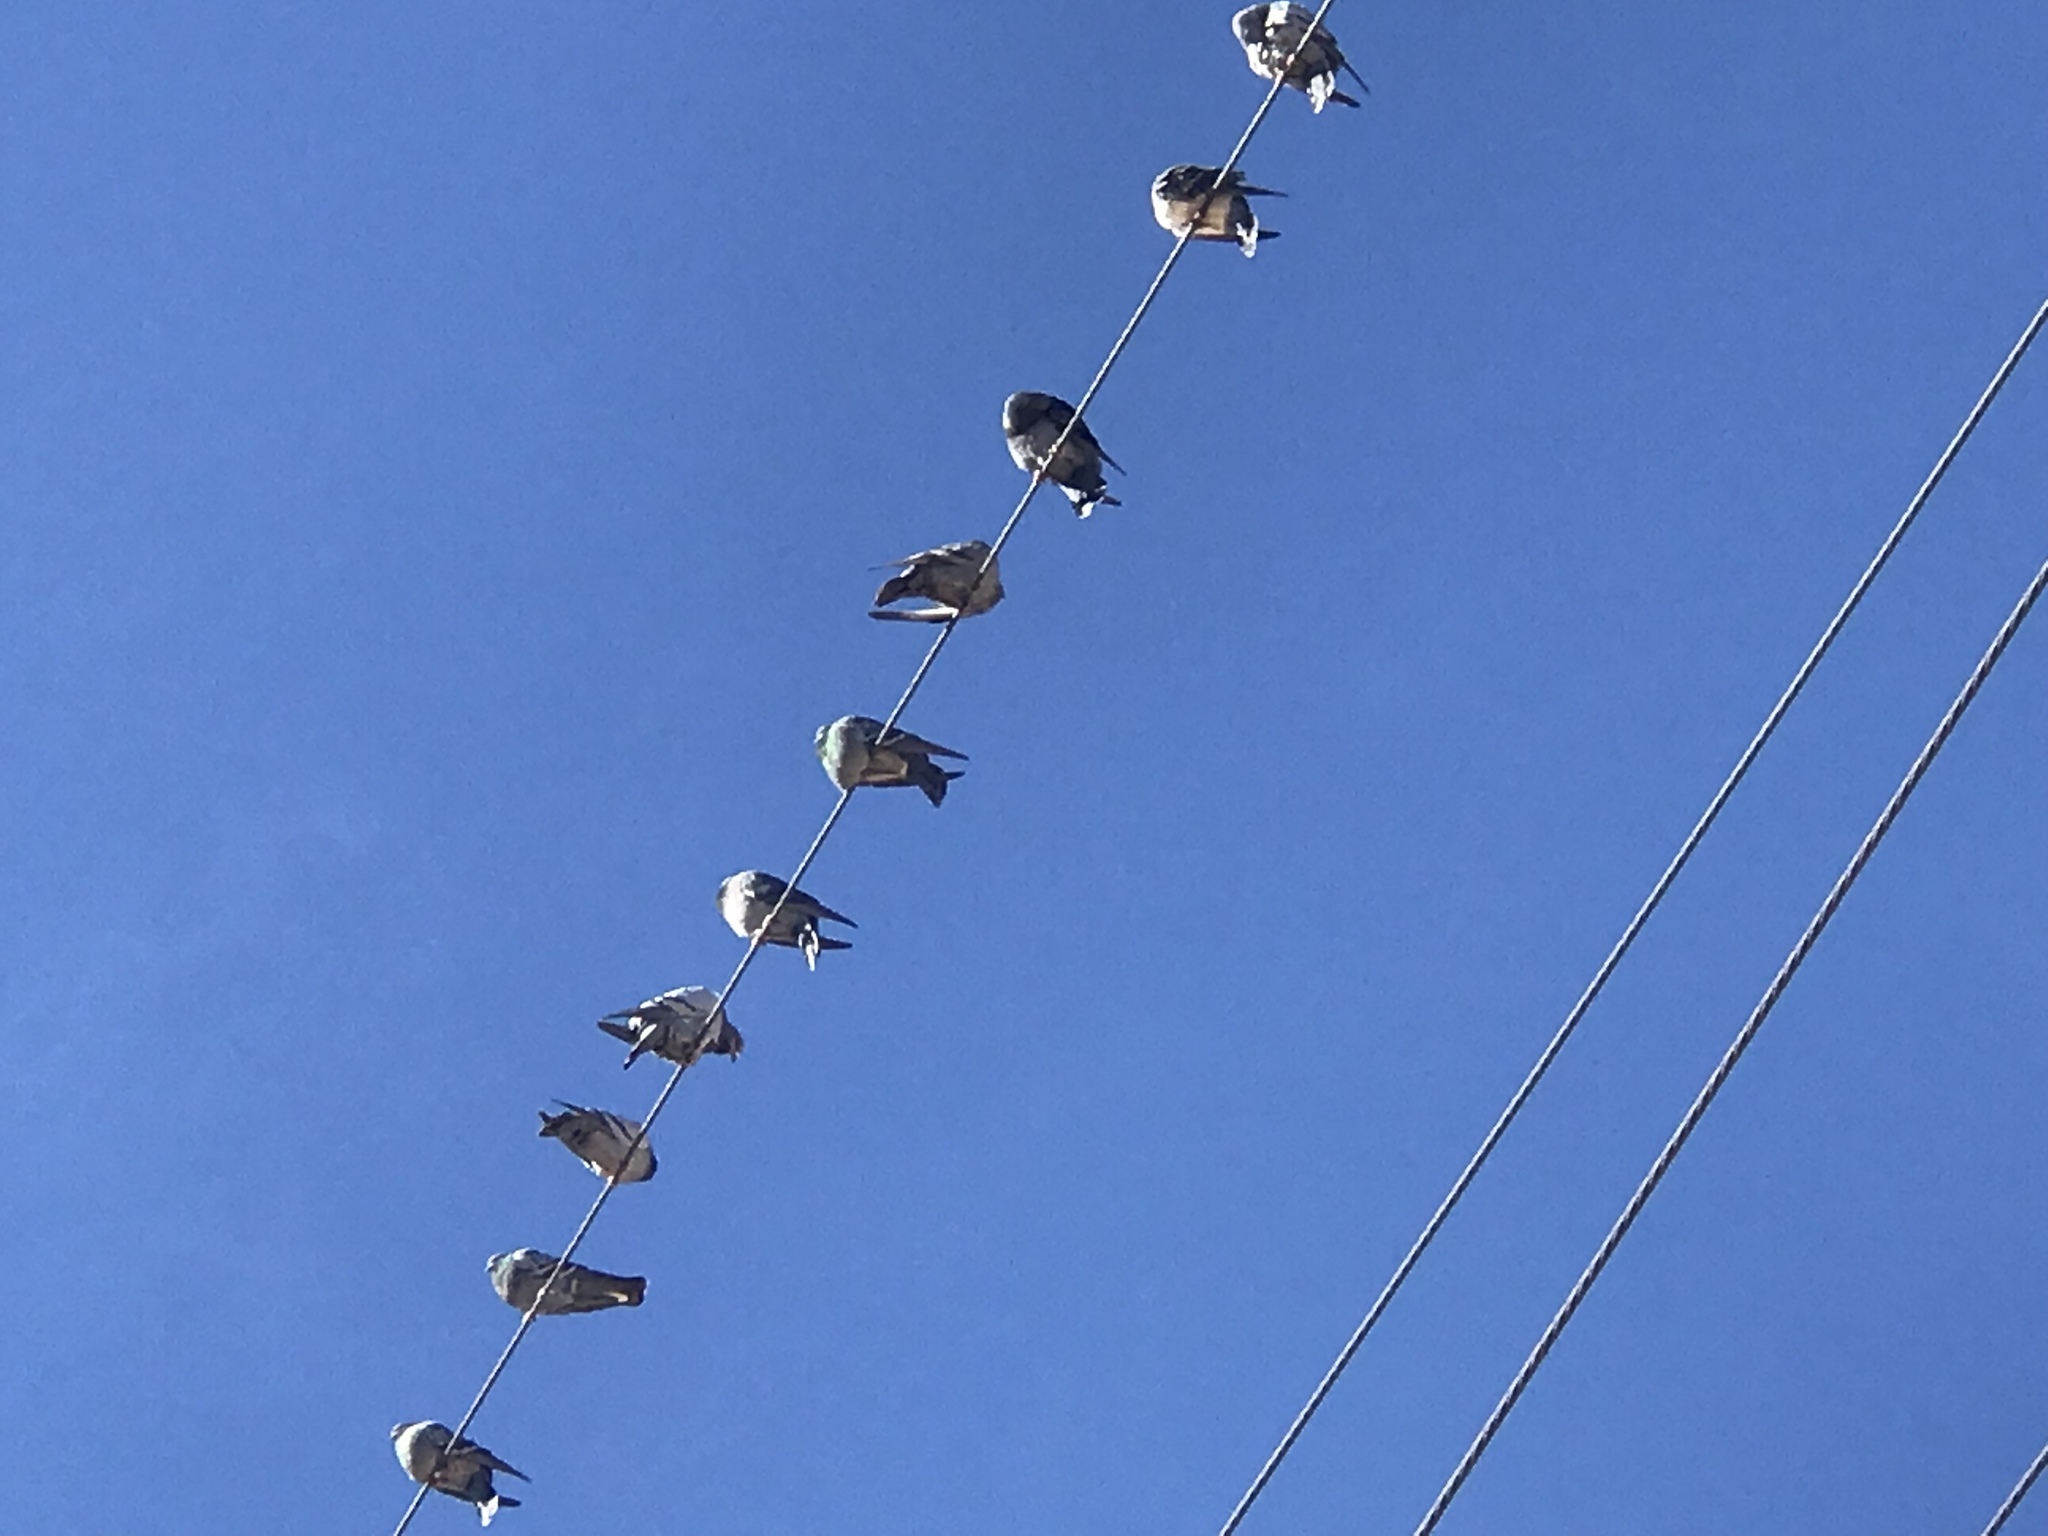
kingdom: Animalia
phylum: Chordata
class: Aves
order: Columbiformes
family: Columbidae
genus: Columba
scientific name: Columba livia
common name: Rock pigeon
